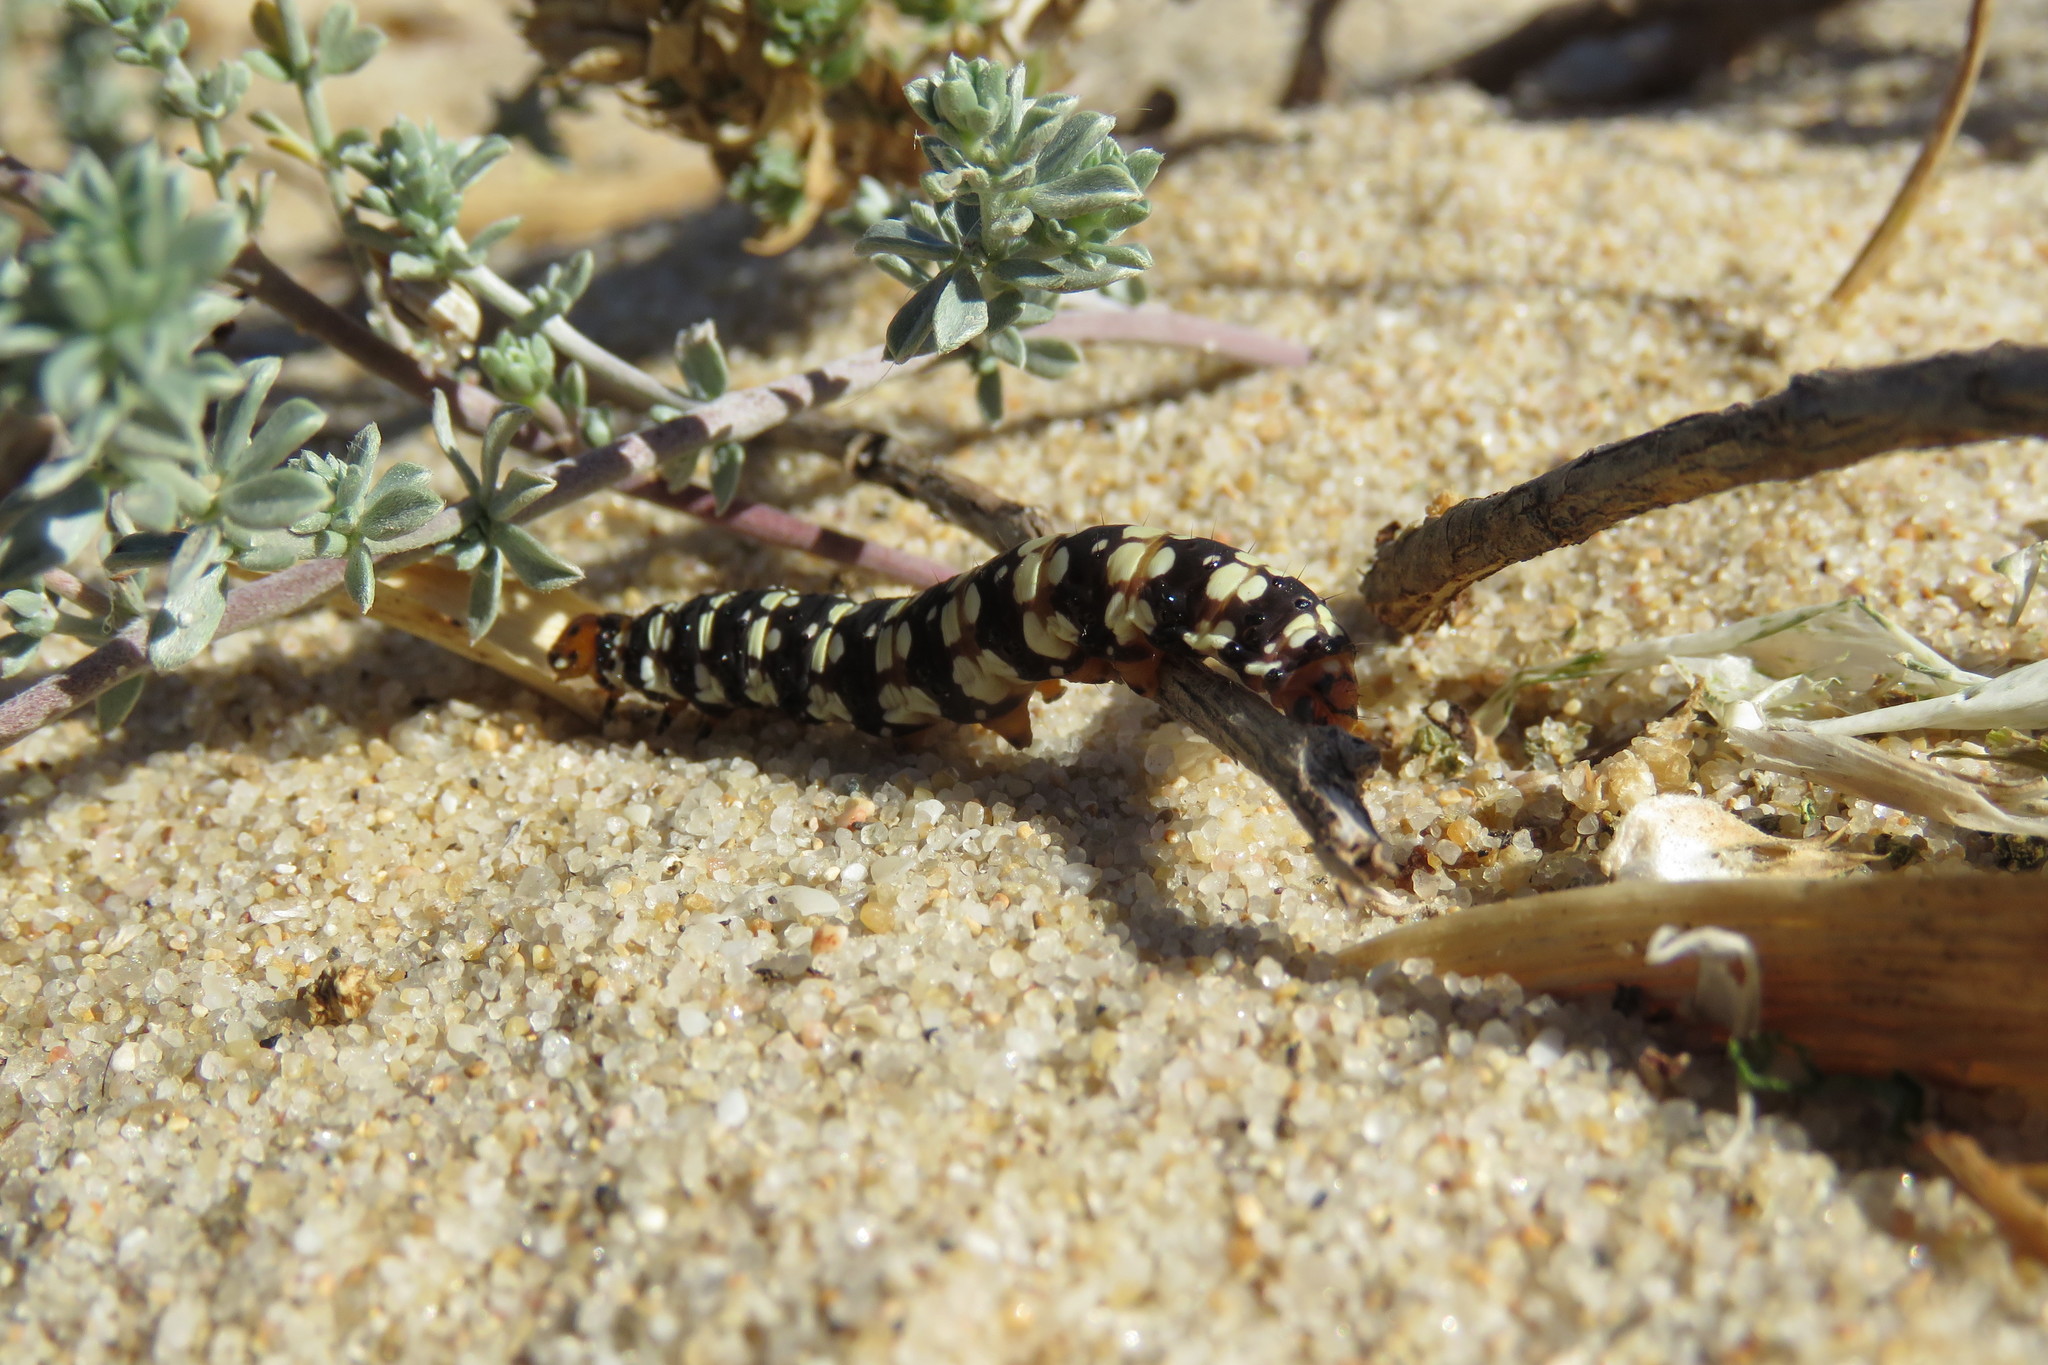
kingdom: Animalia
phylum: Arthropoda
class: Insecta
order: Lepidoptera
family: Noctuidae
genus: Brithys
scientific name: Brithys crini
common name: Kew arches
